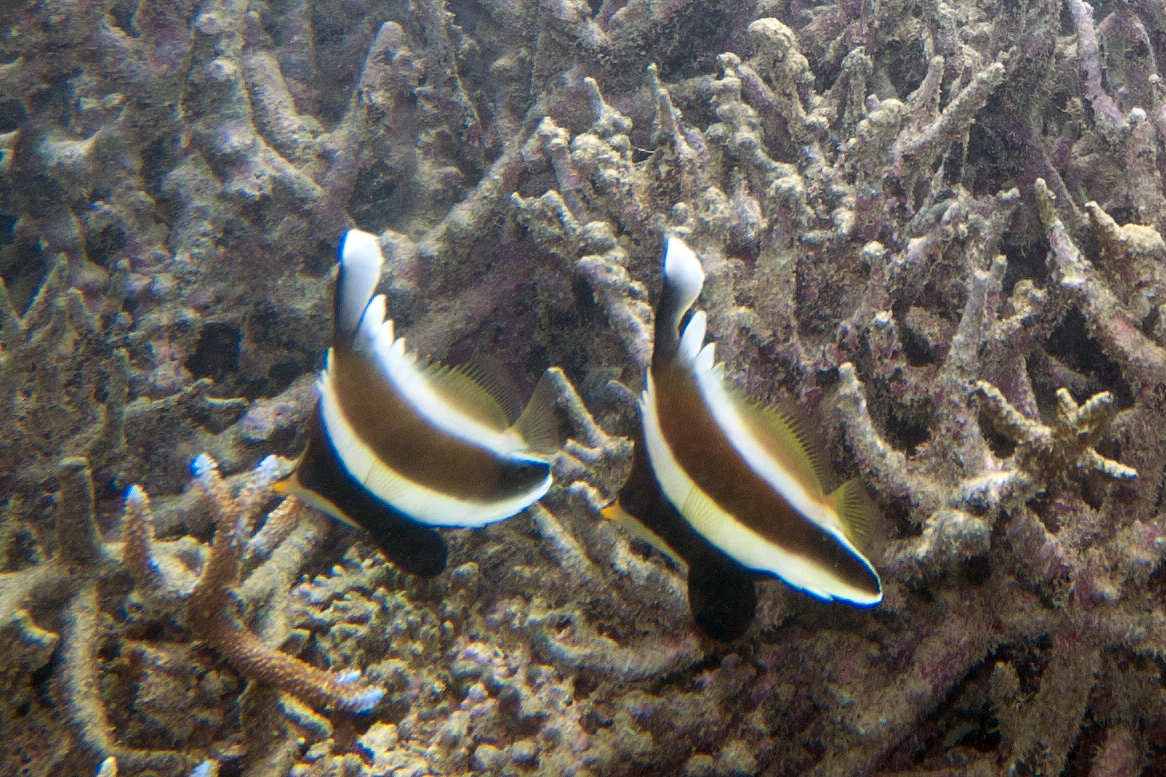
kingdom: Animalia
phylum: Chordata
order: Perciformes
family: Chaetodontidae
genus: Heniochus
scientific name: Heniochus chrysostomus
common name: Horned bannerfish
